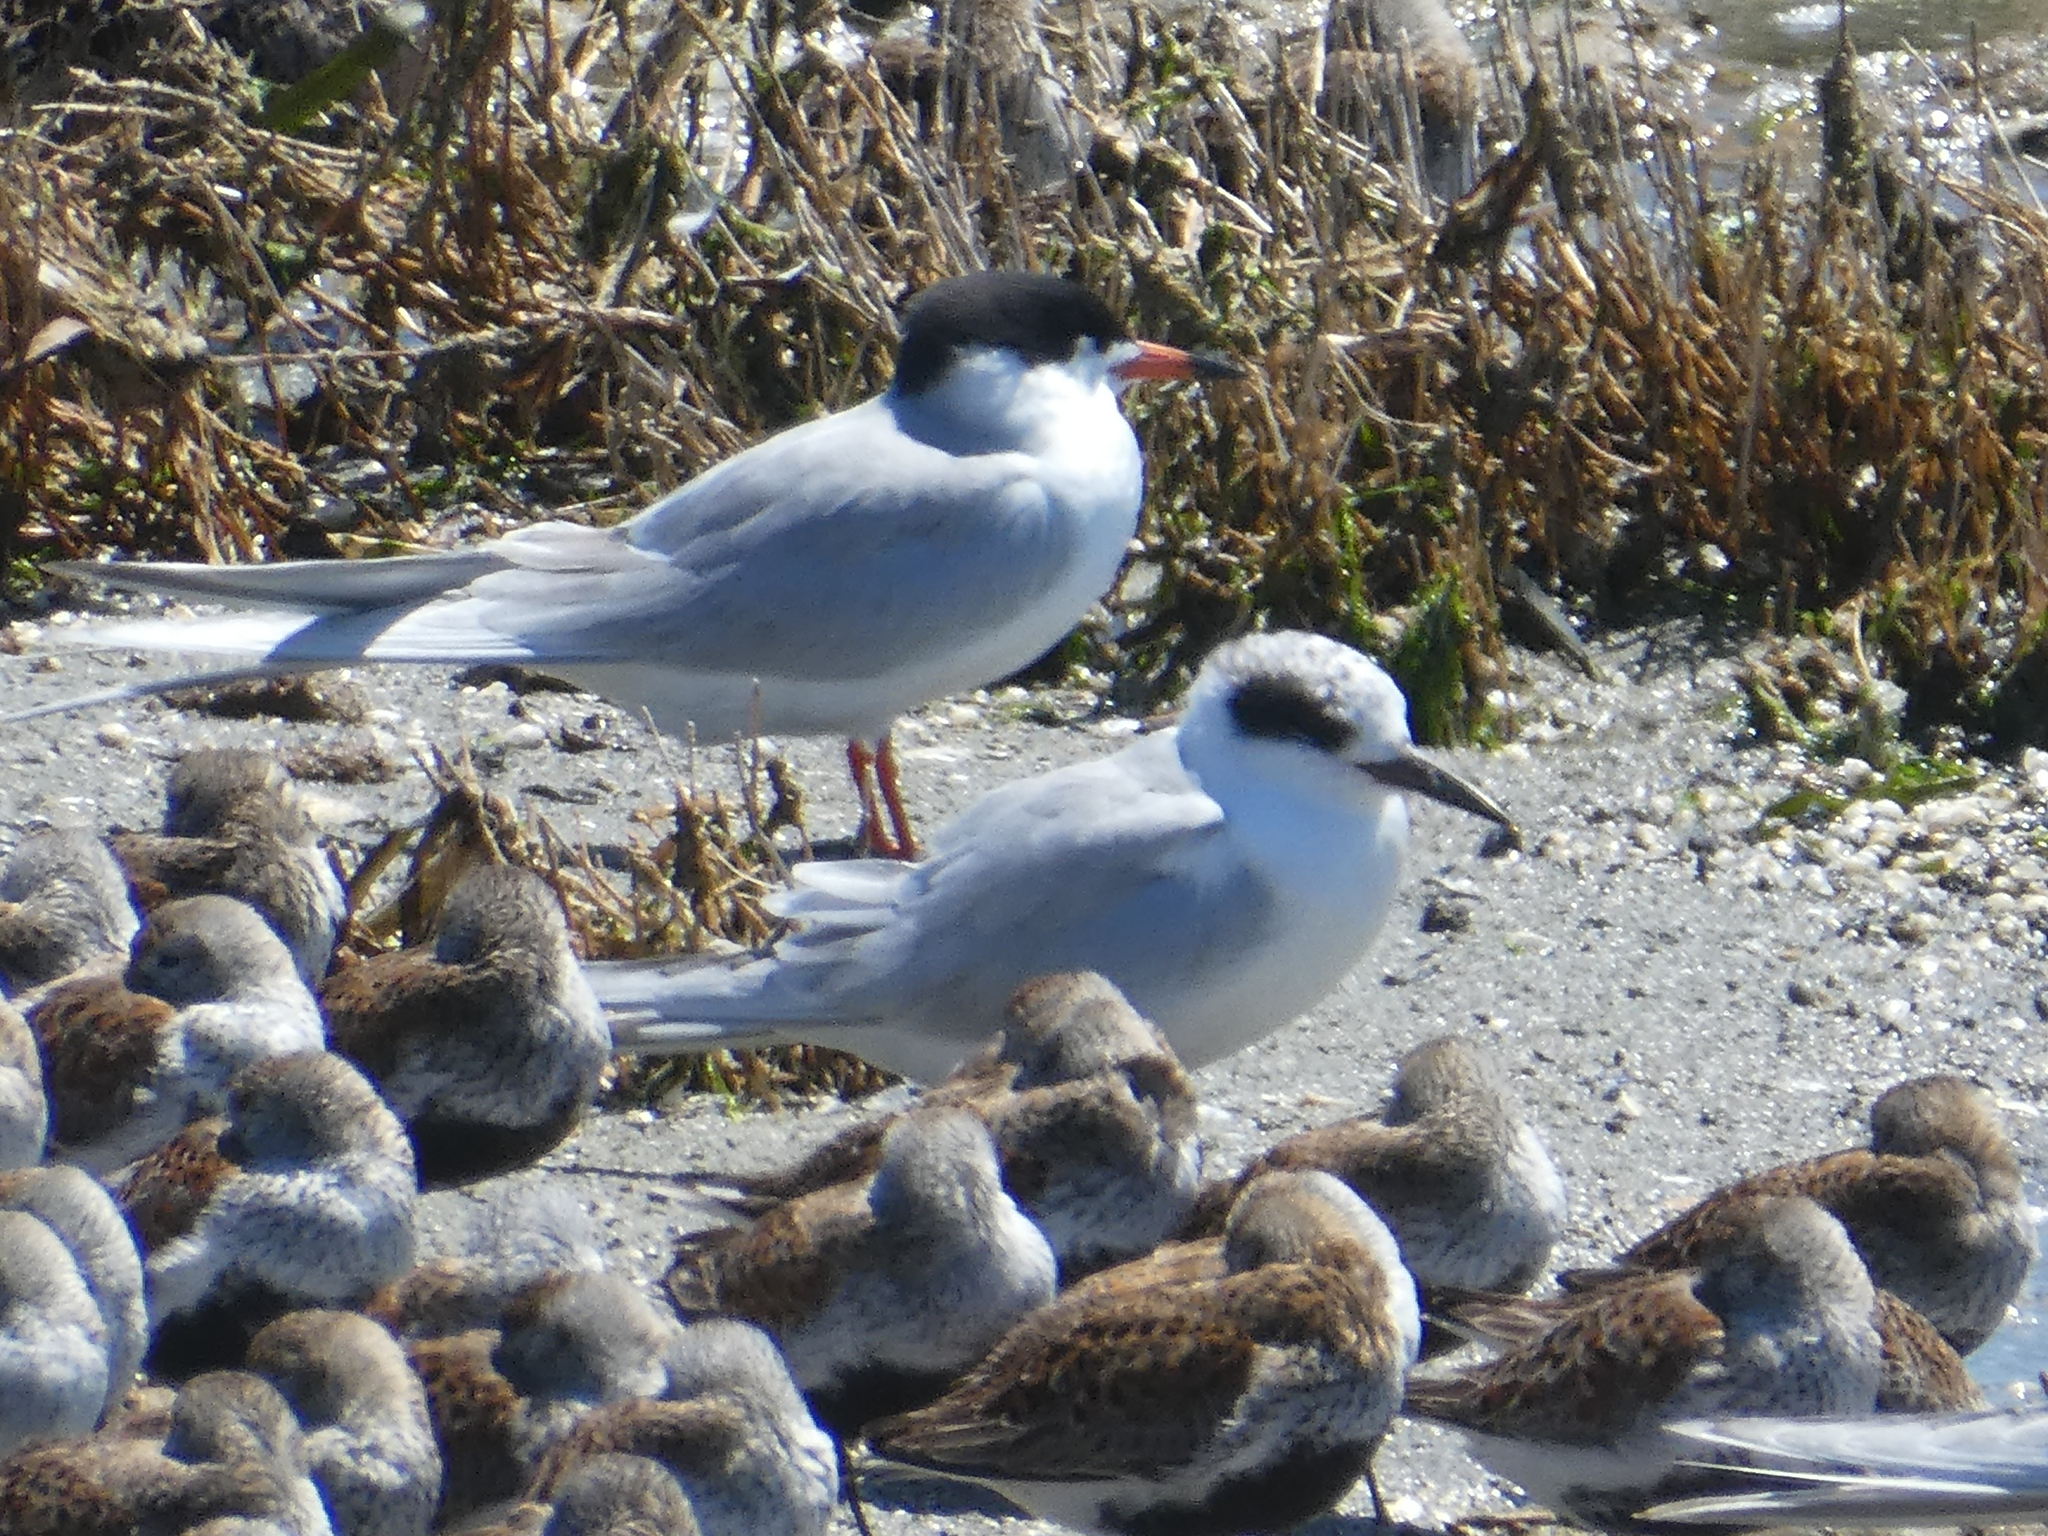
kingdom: Animalia
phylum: Chordata
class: Aves
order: Charadriiformes
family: Laridae
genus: Sterna
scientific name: Sterna forsteri
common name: Forster's tern
